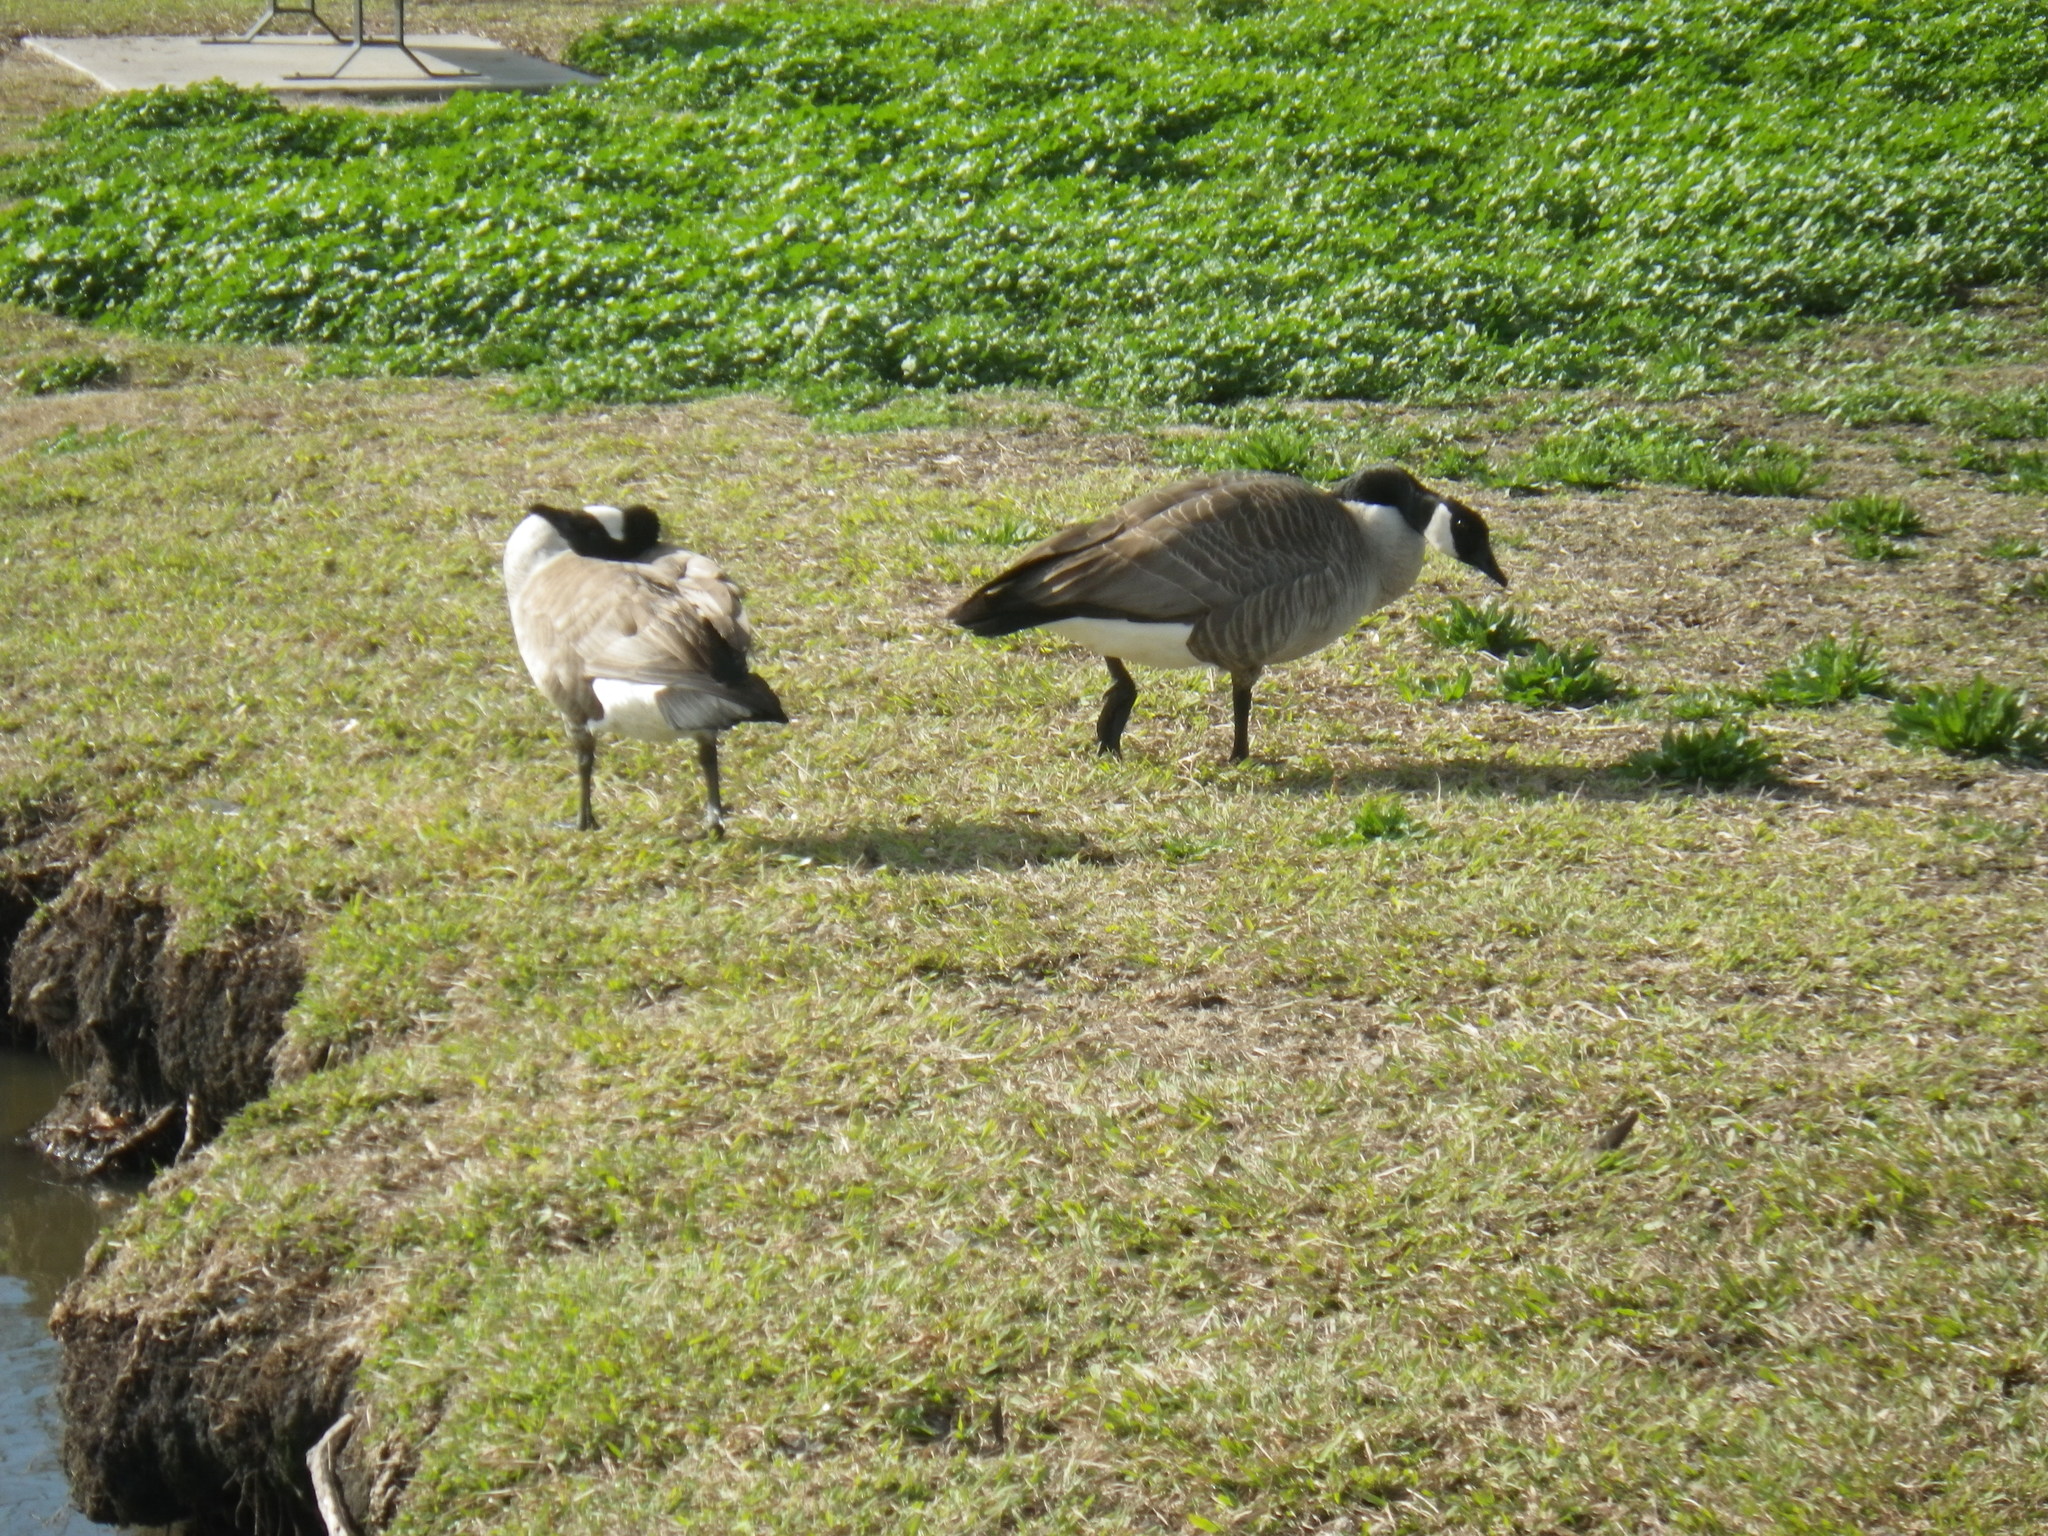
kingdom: Animalia
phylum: Chordata
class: Aves
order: Anseriformes
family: Anatidae
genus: Branta
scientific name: Branta canadensis
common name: Canada goose
